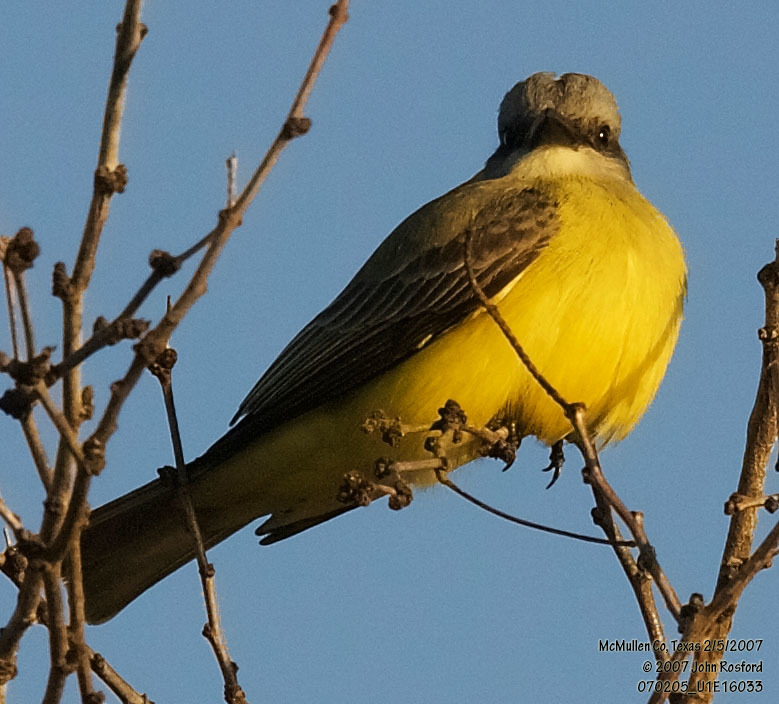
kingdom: Animalia
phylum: Chordata
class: Aves
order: Passeriformes
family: Tyrannidae
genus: Tyrannus
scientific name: Tyrannus couchii
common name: Couch's kingbird
